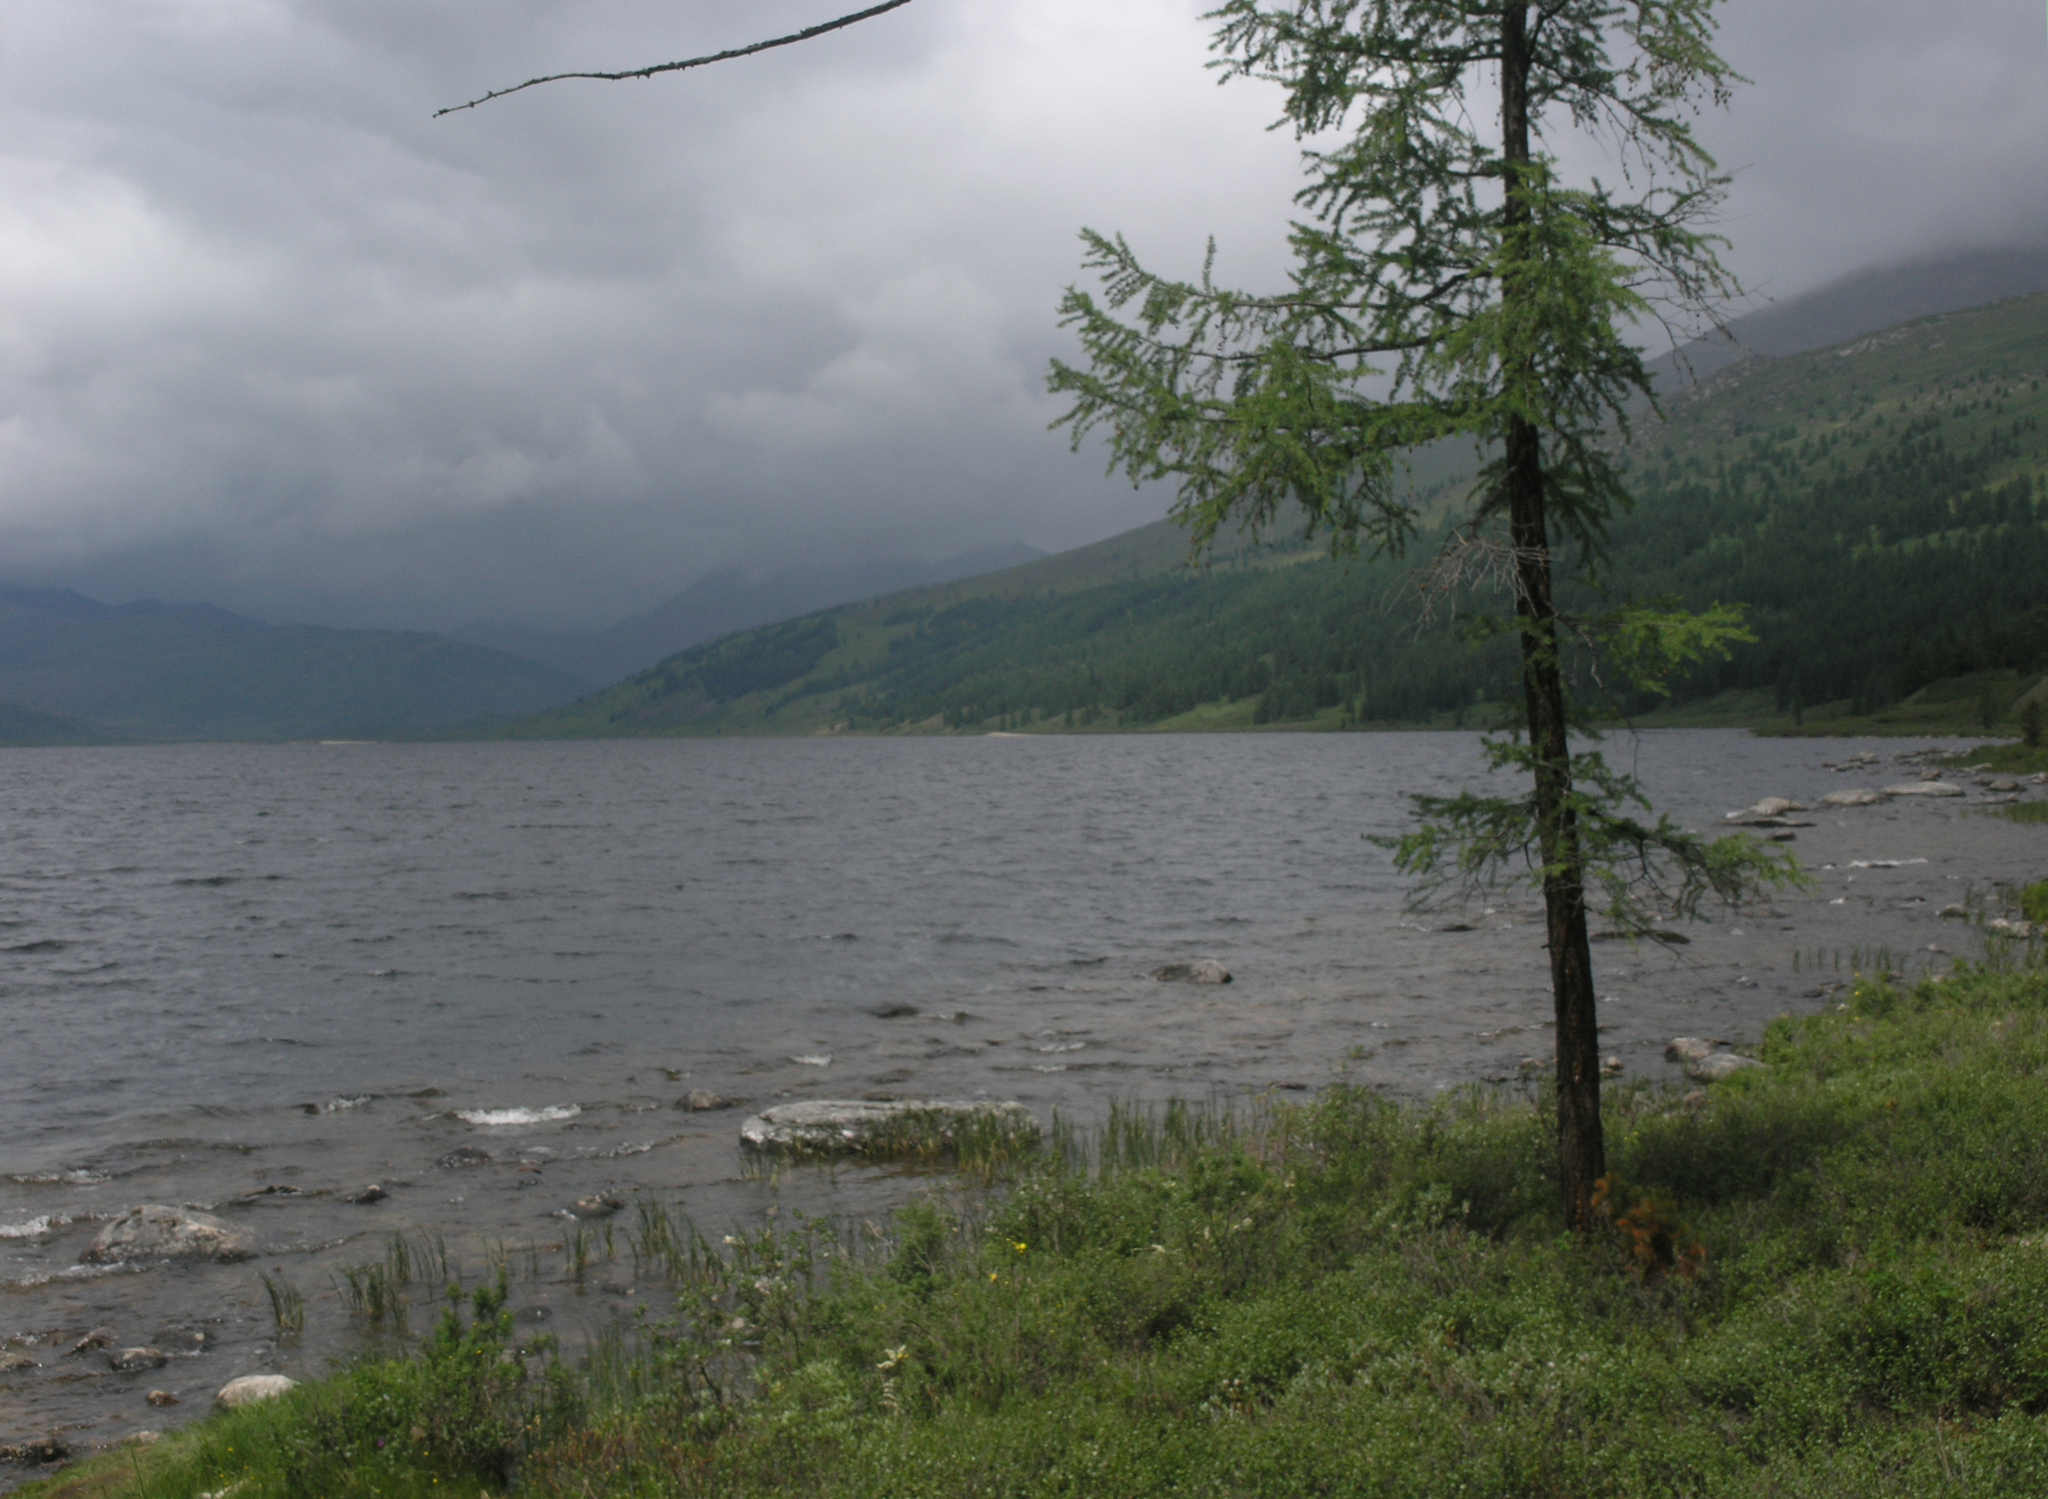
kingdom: Plantae
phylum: Tracheophyta
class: Pinopsida
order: Pinales
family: Pinaceae
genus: Larix
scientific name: Larix sibirica
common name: Siberian larch
